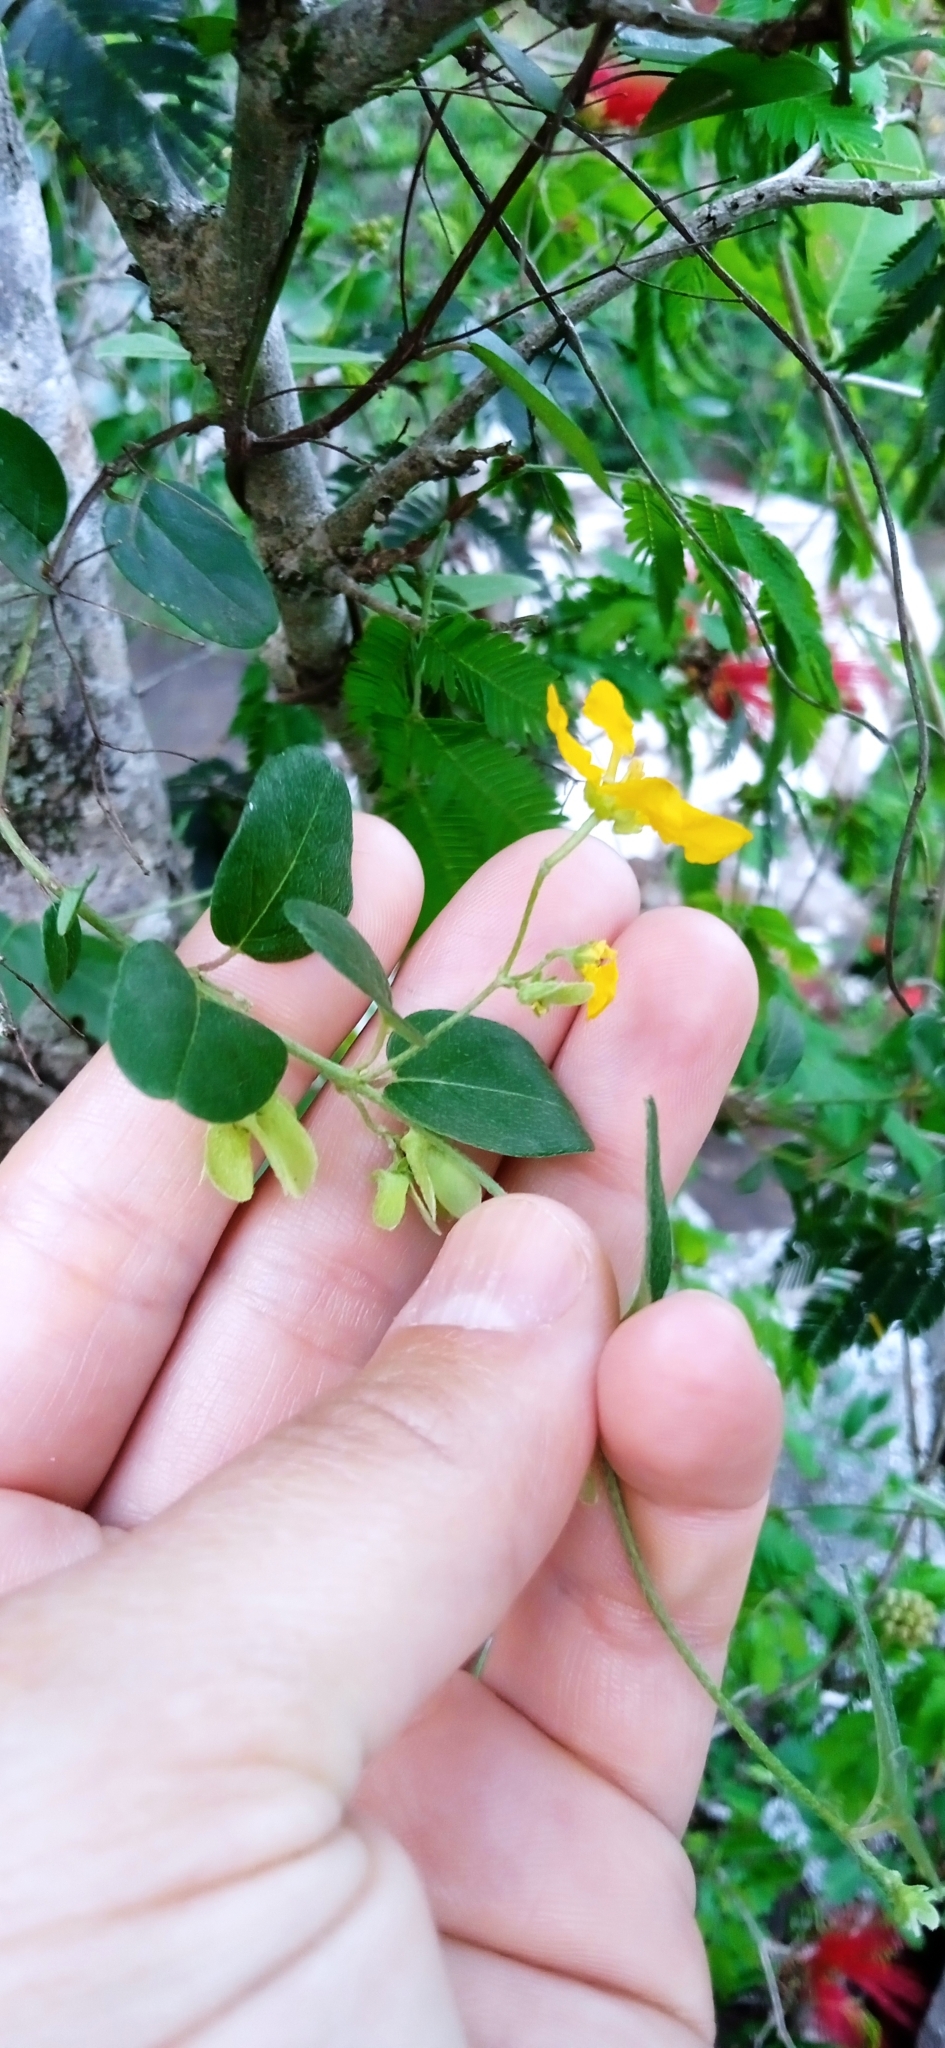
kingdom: Plantae
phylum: Tracheophyta
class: Magnoliopsida
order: Malpighiales
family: Malpighiaceae
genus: Janusia
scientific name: Janusia guaranitica
